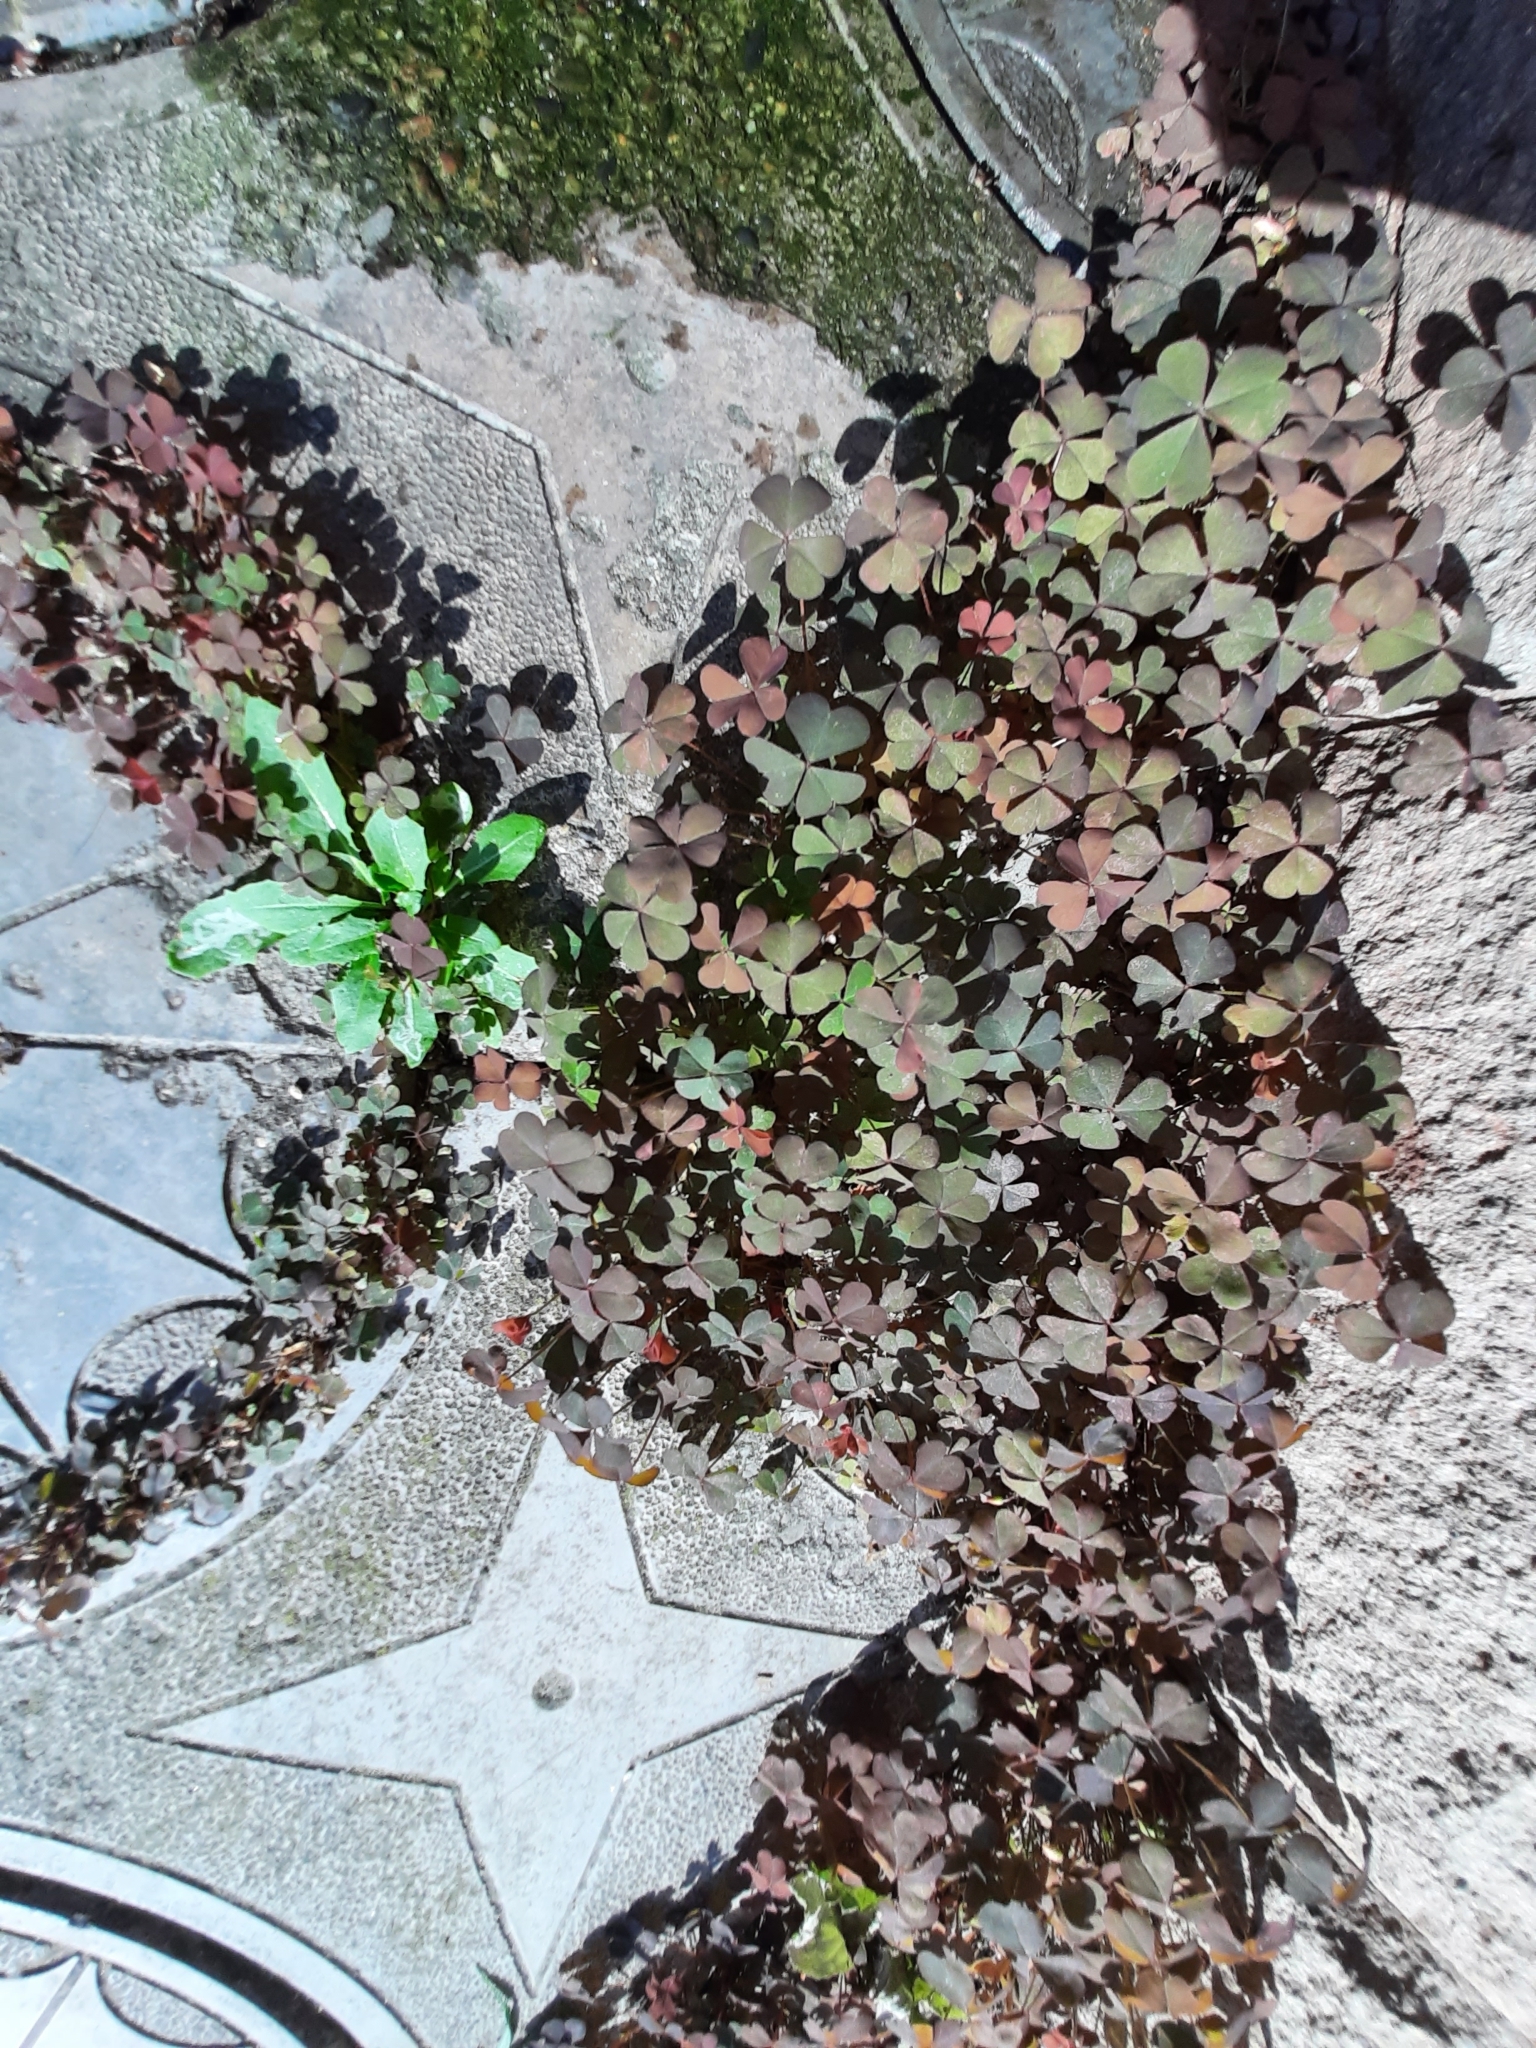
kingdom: Plantae
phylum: Tracheophyta
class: Magnoliopsida
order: Oxalidales
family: Oxalidaceae
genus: Oxalis
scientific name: Oxalis corniculata
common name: Procumbent yellow-sorrel
